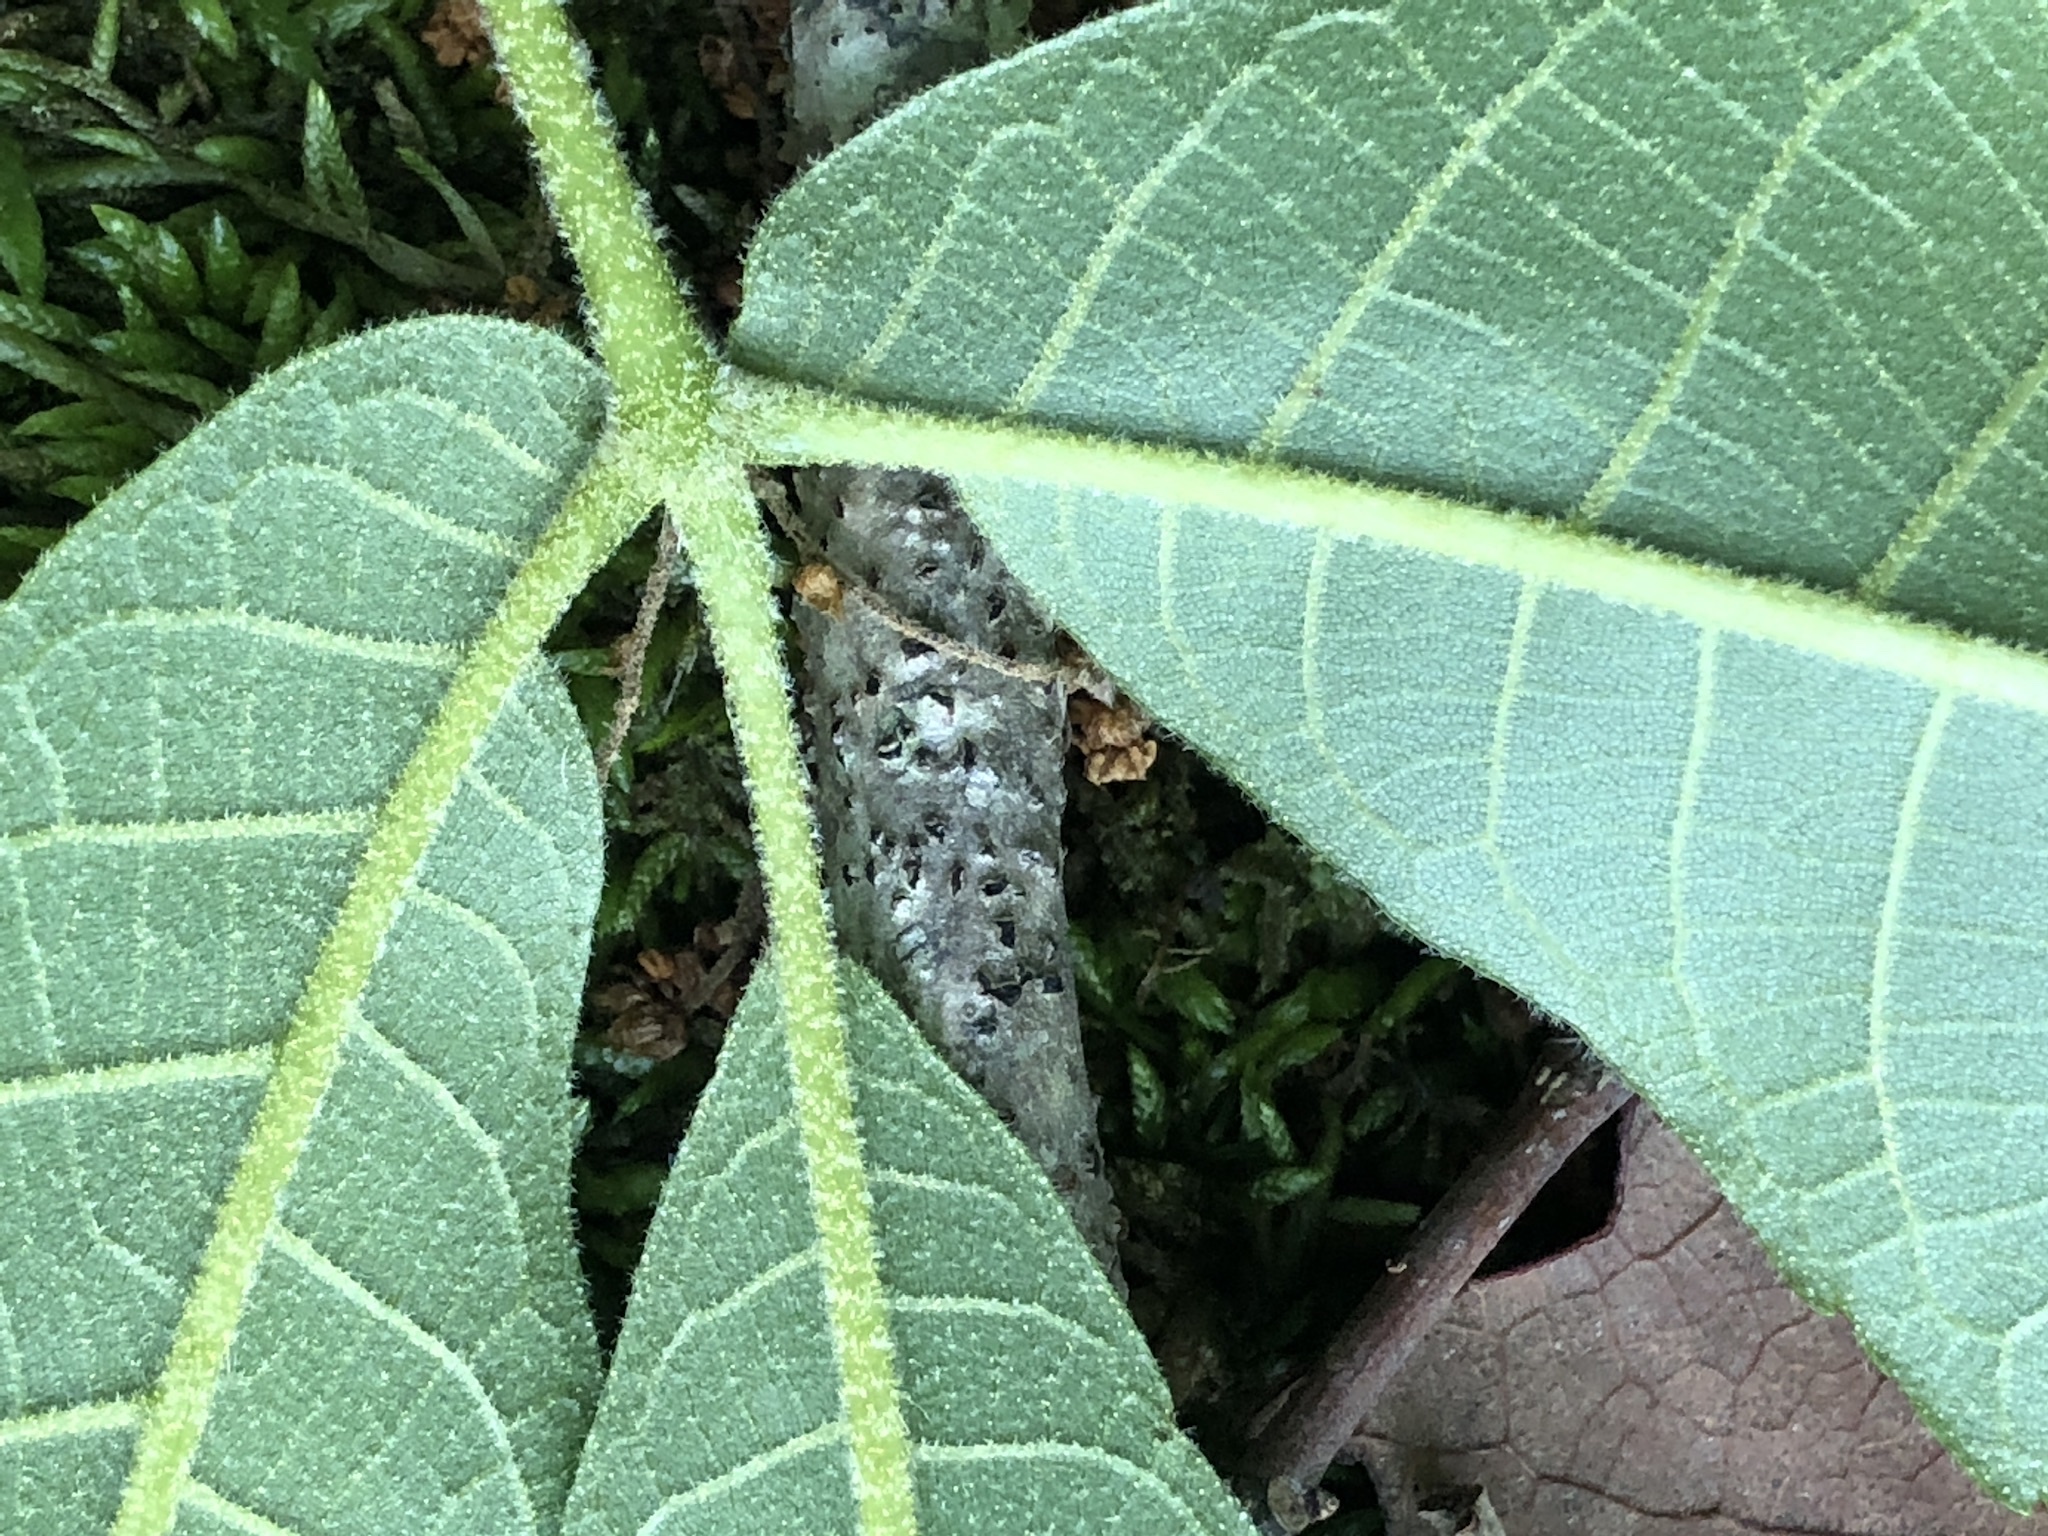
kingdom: Plantae
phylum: Tracheophyta
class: Magnoliopsida
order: Fagales
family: Juglandaceae
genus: Carya
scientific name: Carya alba
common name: Mockernut hickory
